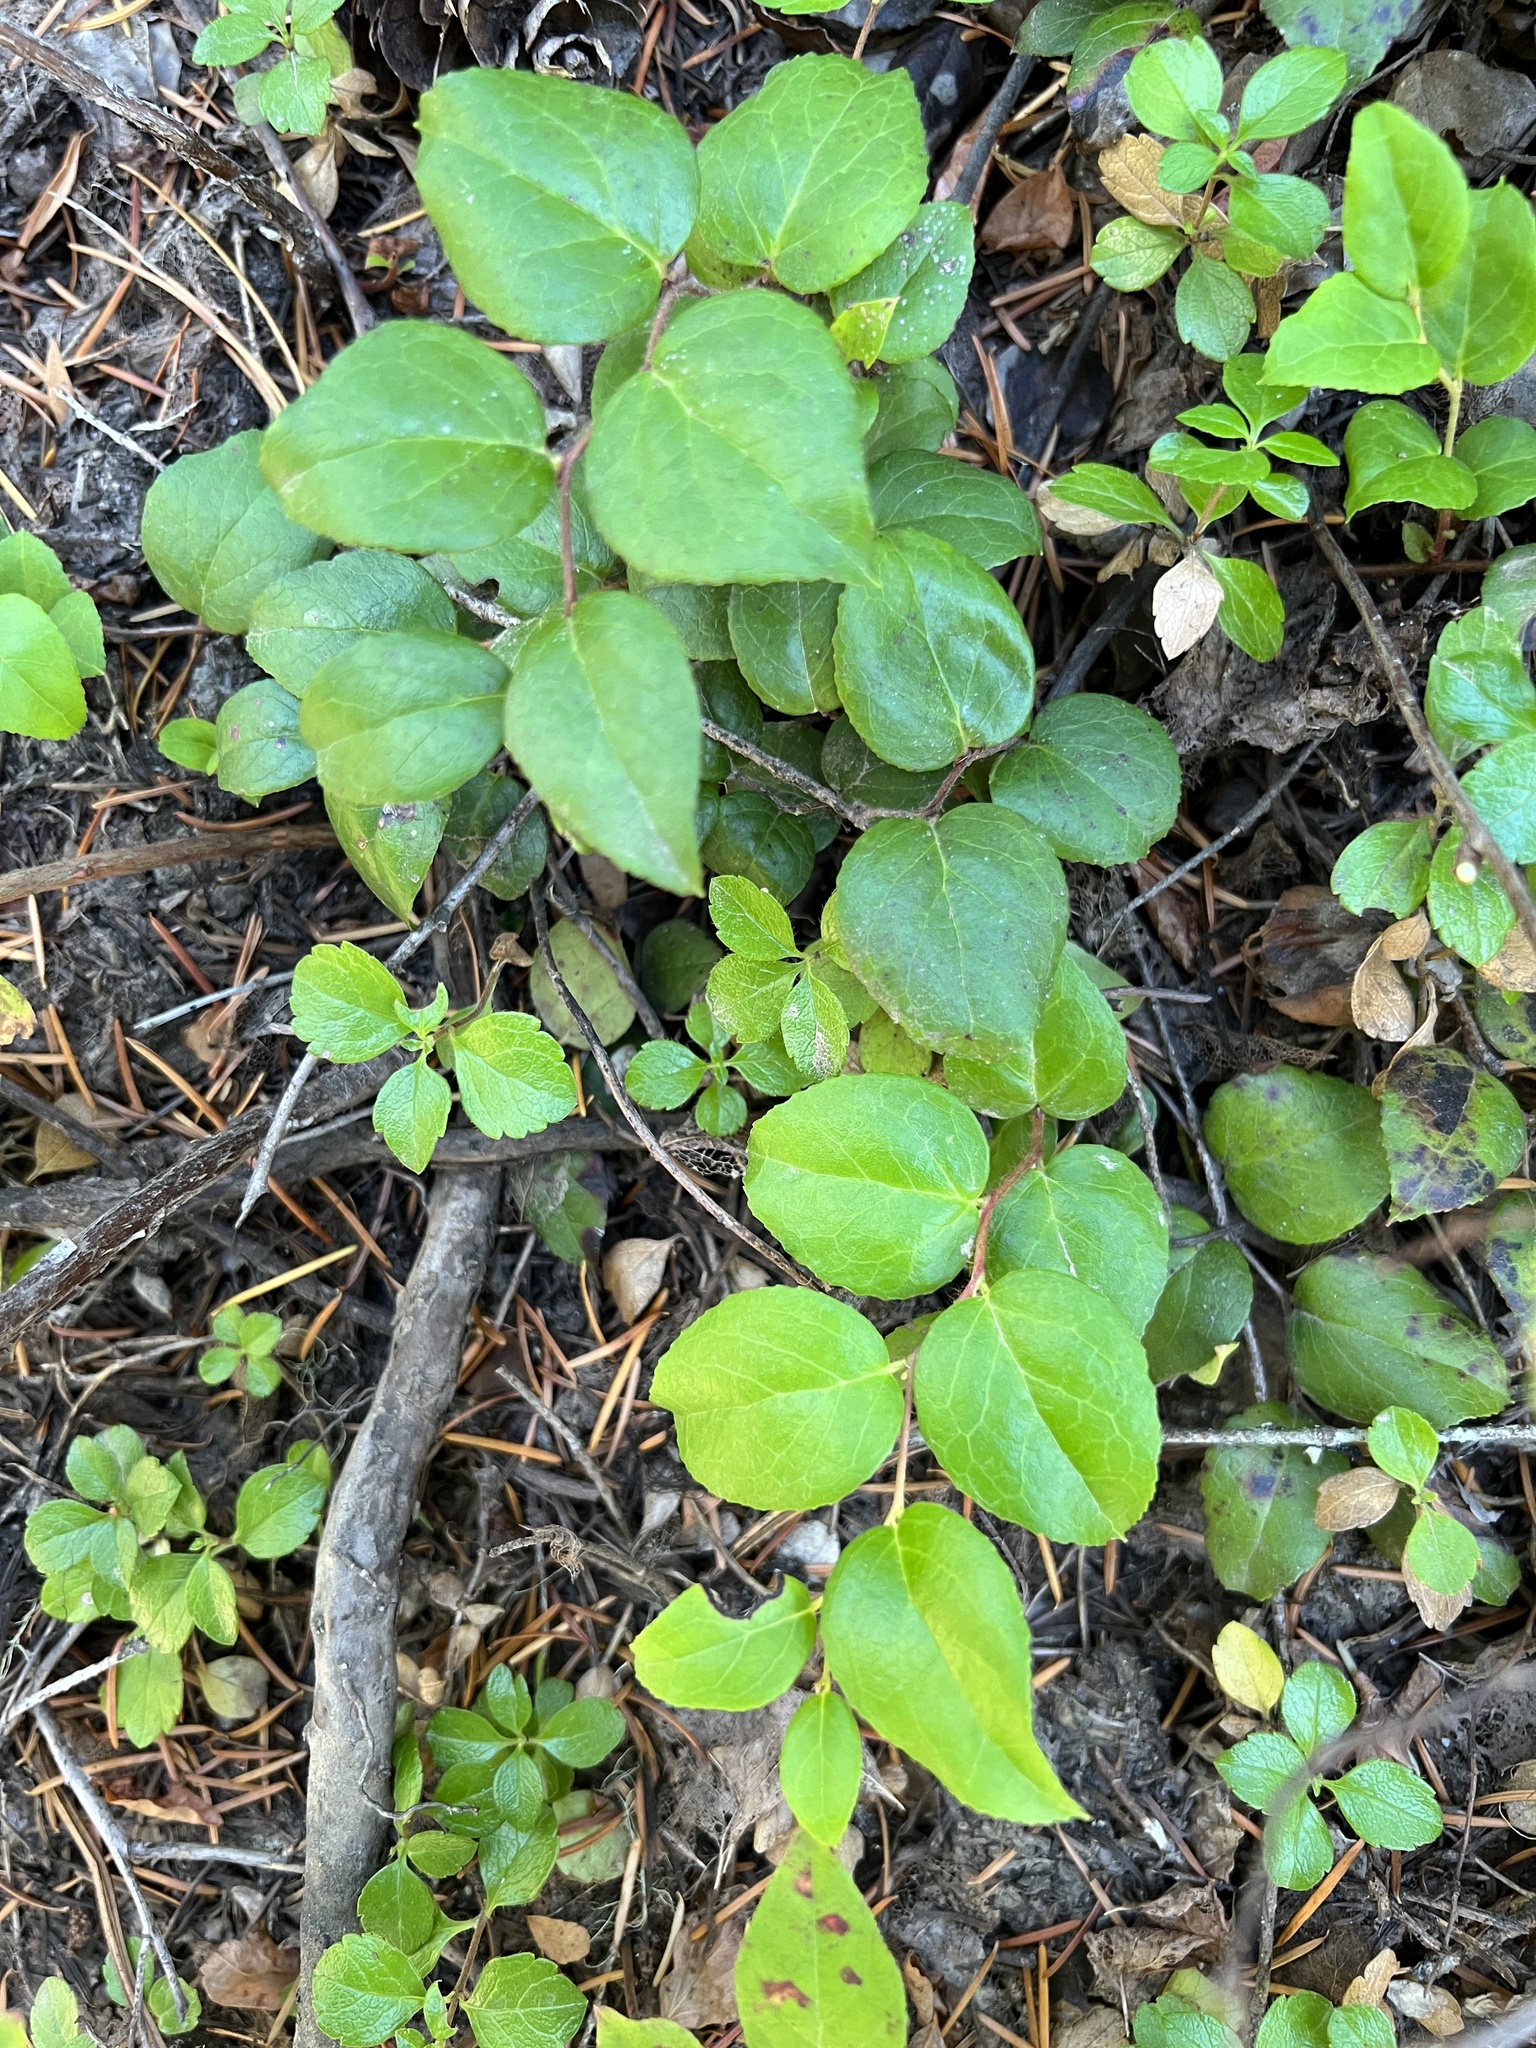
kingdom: Plantae
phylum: Tracheophyta
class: Magnoliopsida
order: Ericales
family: Ericaceae
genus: Gaultheria
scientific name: Gaultheria ovatifolia
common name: Oregon wintergreen
